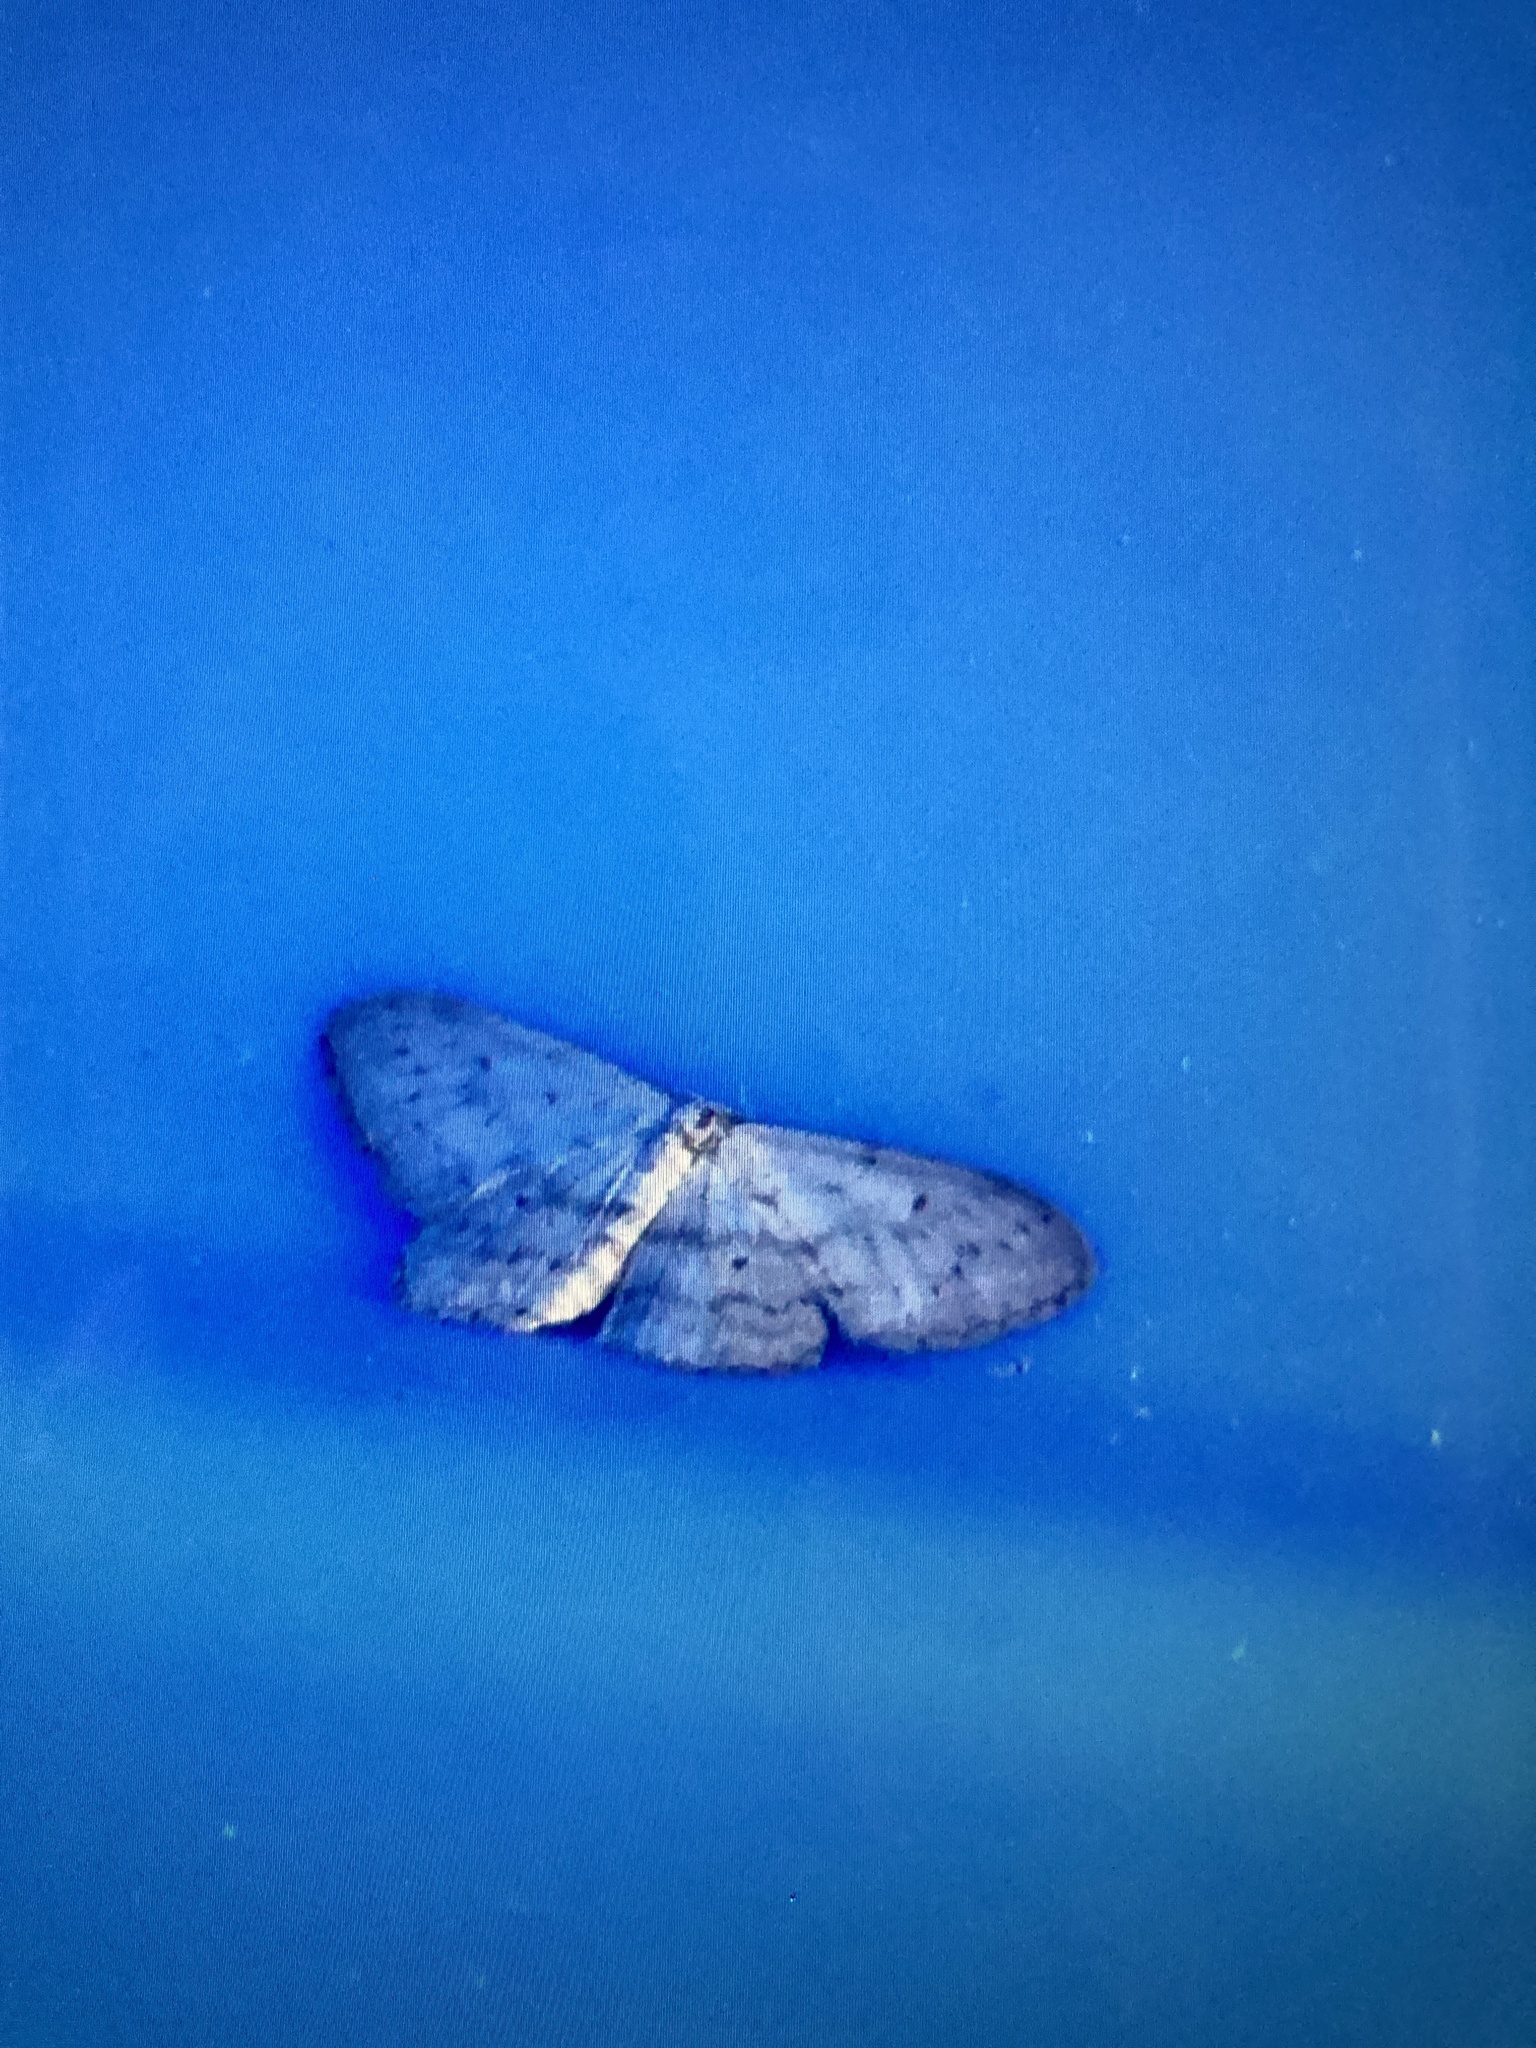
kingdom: Animalia
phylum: Arthropoda
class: Insecta
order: Lepidoptera
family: Geometridae
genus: Idaea
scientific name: Idaea seriata
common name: Small dusty wave
